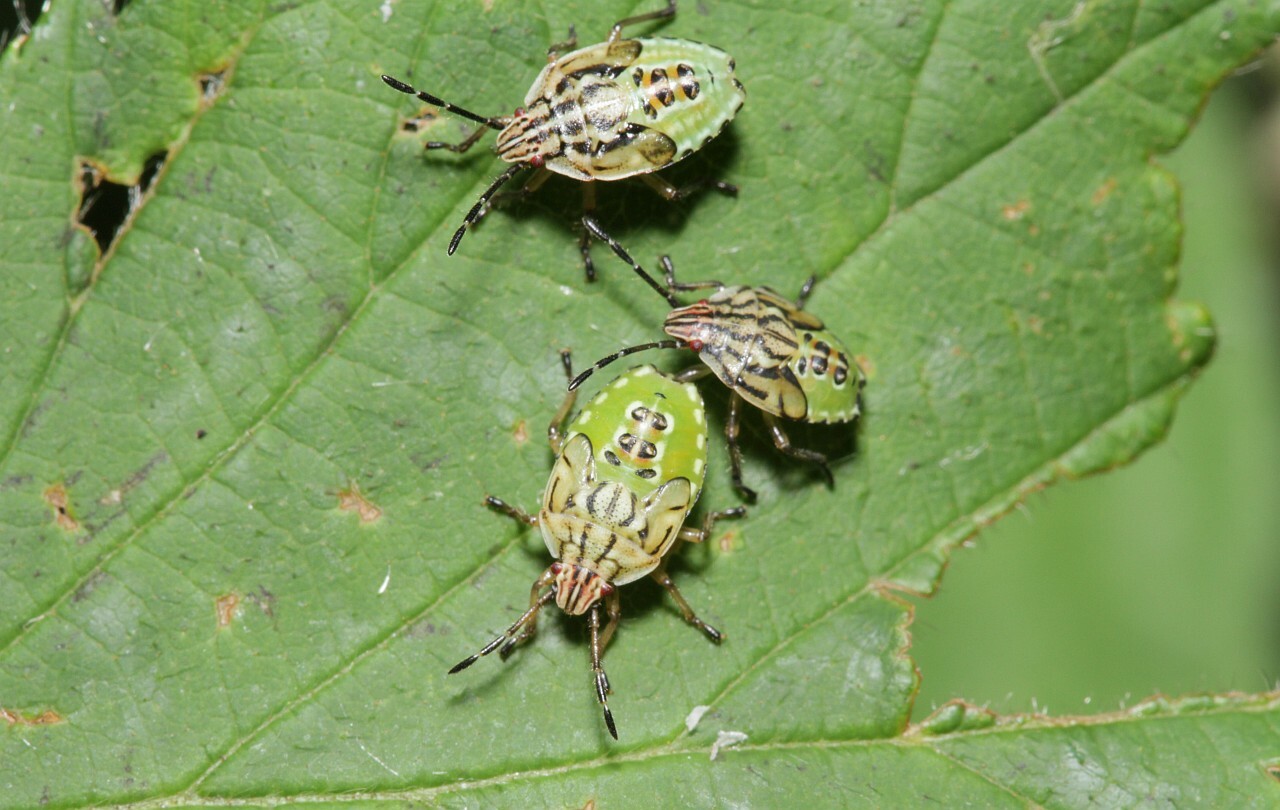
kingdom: Animalia
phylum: Arthropoda
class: Insecta
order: Hemiptera
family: Acanthosomatidae
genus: Elasmucha
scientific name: Elasmucha grisea
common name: Parent bug
